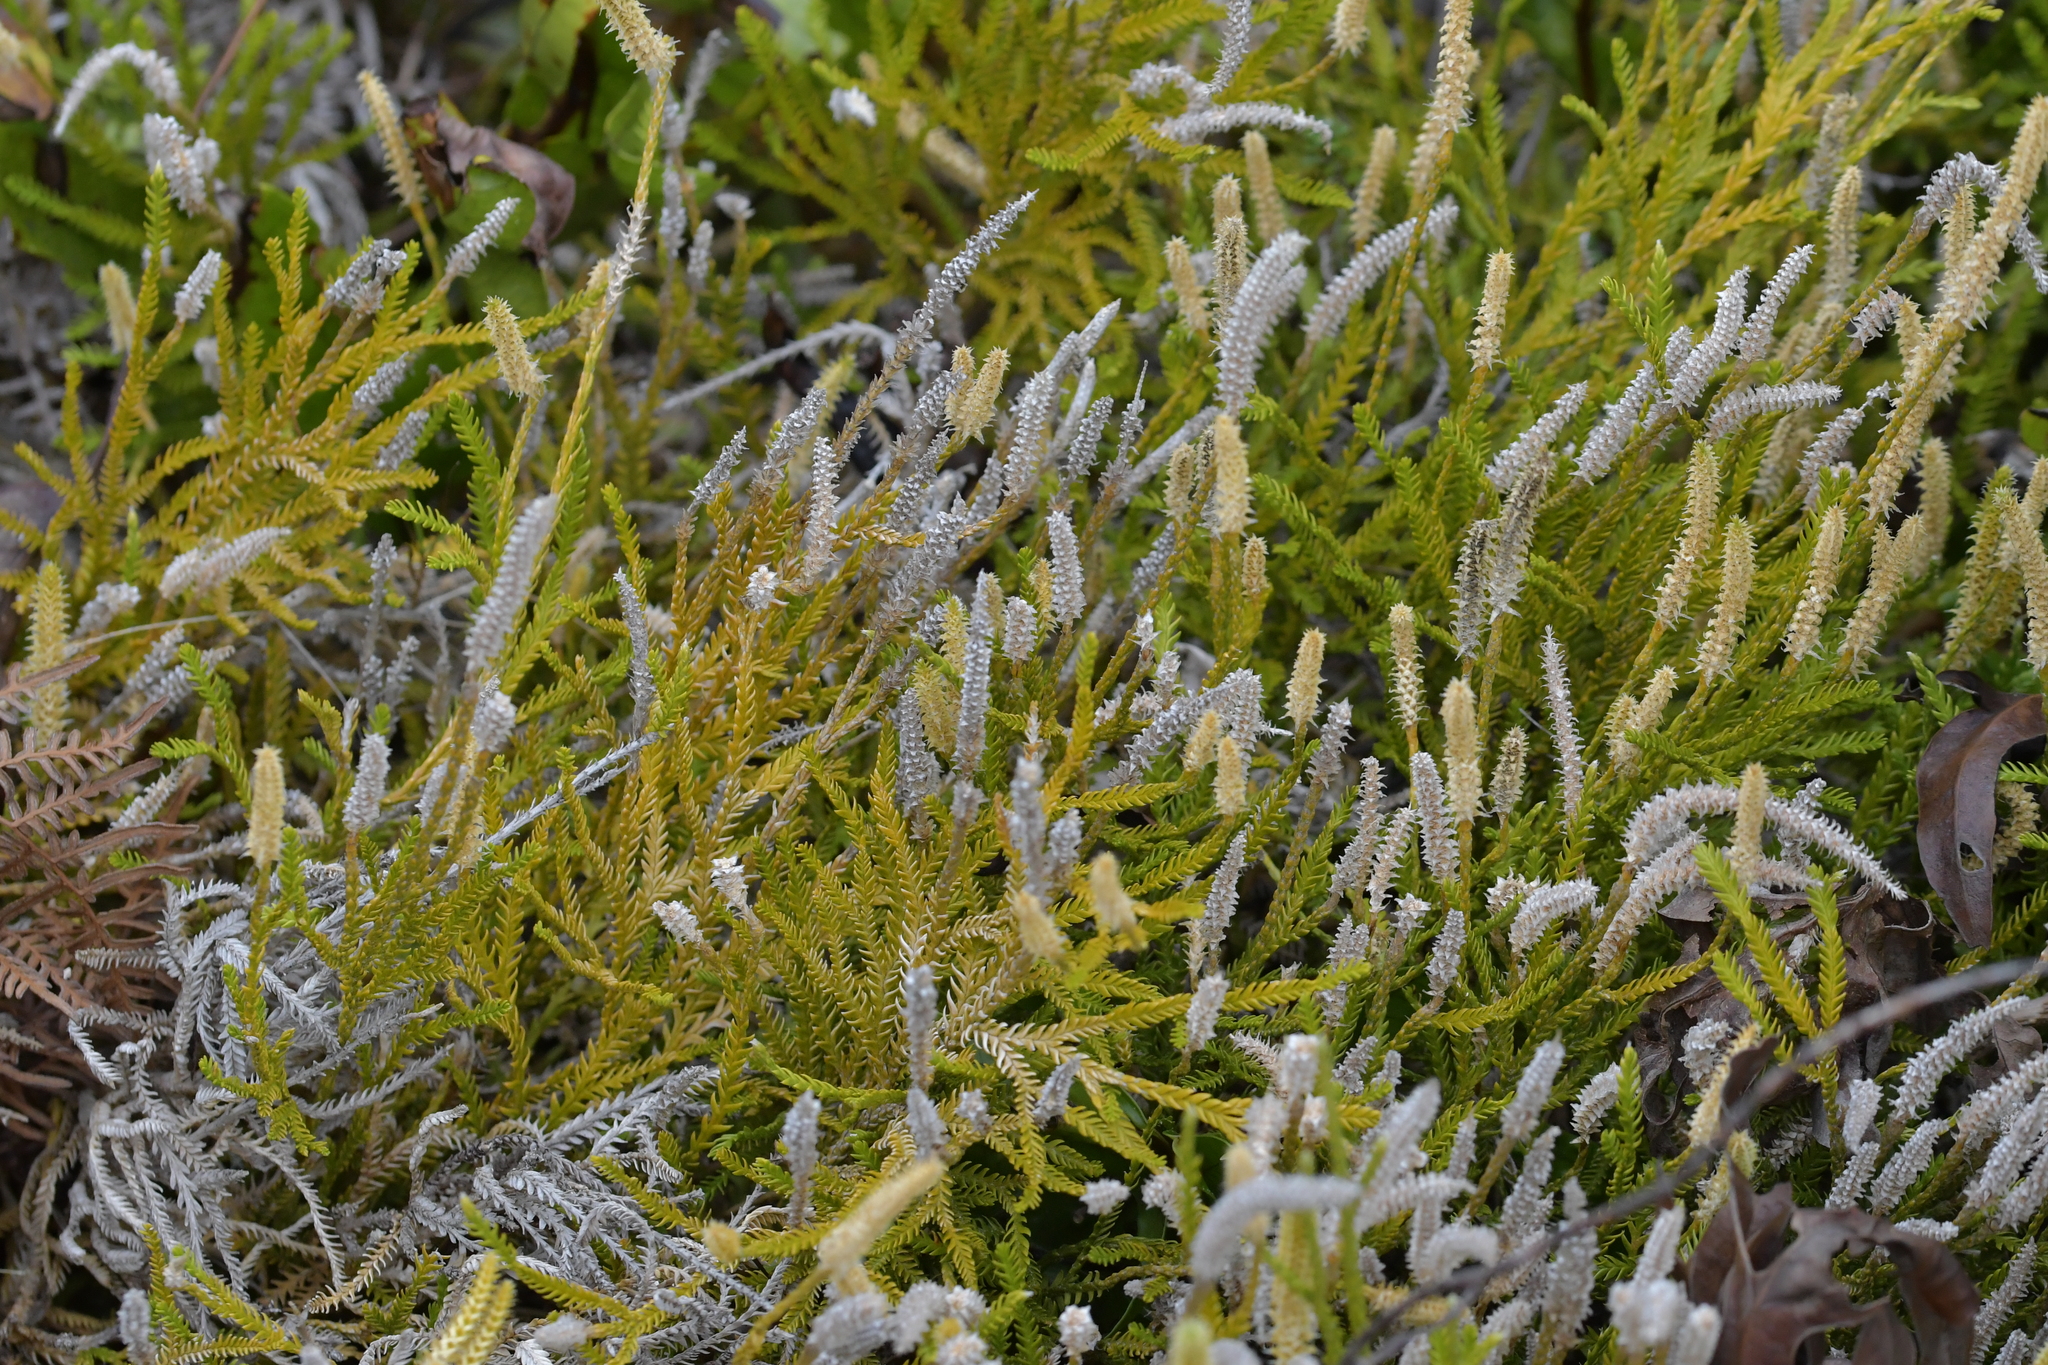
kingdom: Plantae
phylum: Tracheophyta
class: Lycopodiopsida
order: Lycopodiales
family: Lycopodiaceae
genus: Diphasium
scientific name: Diphasium scariosum
